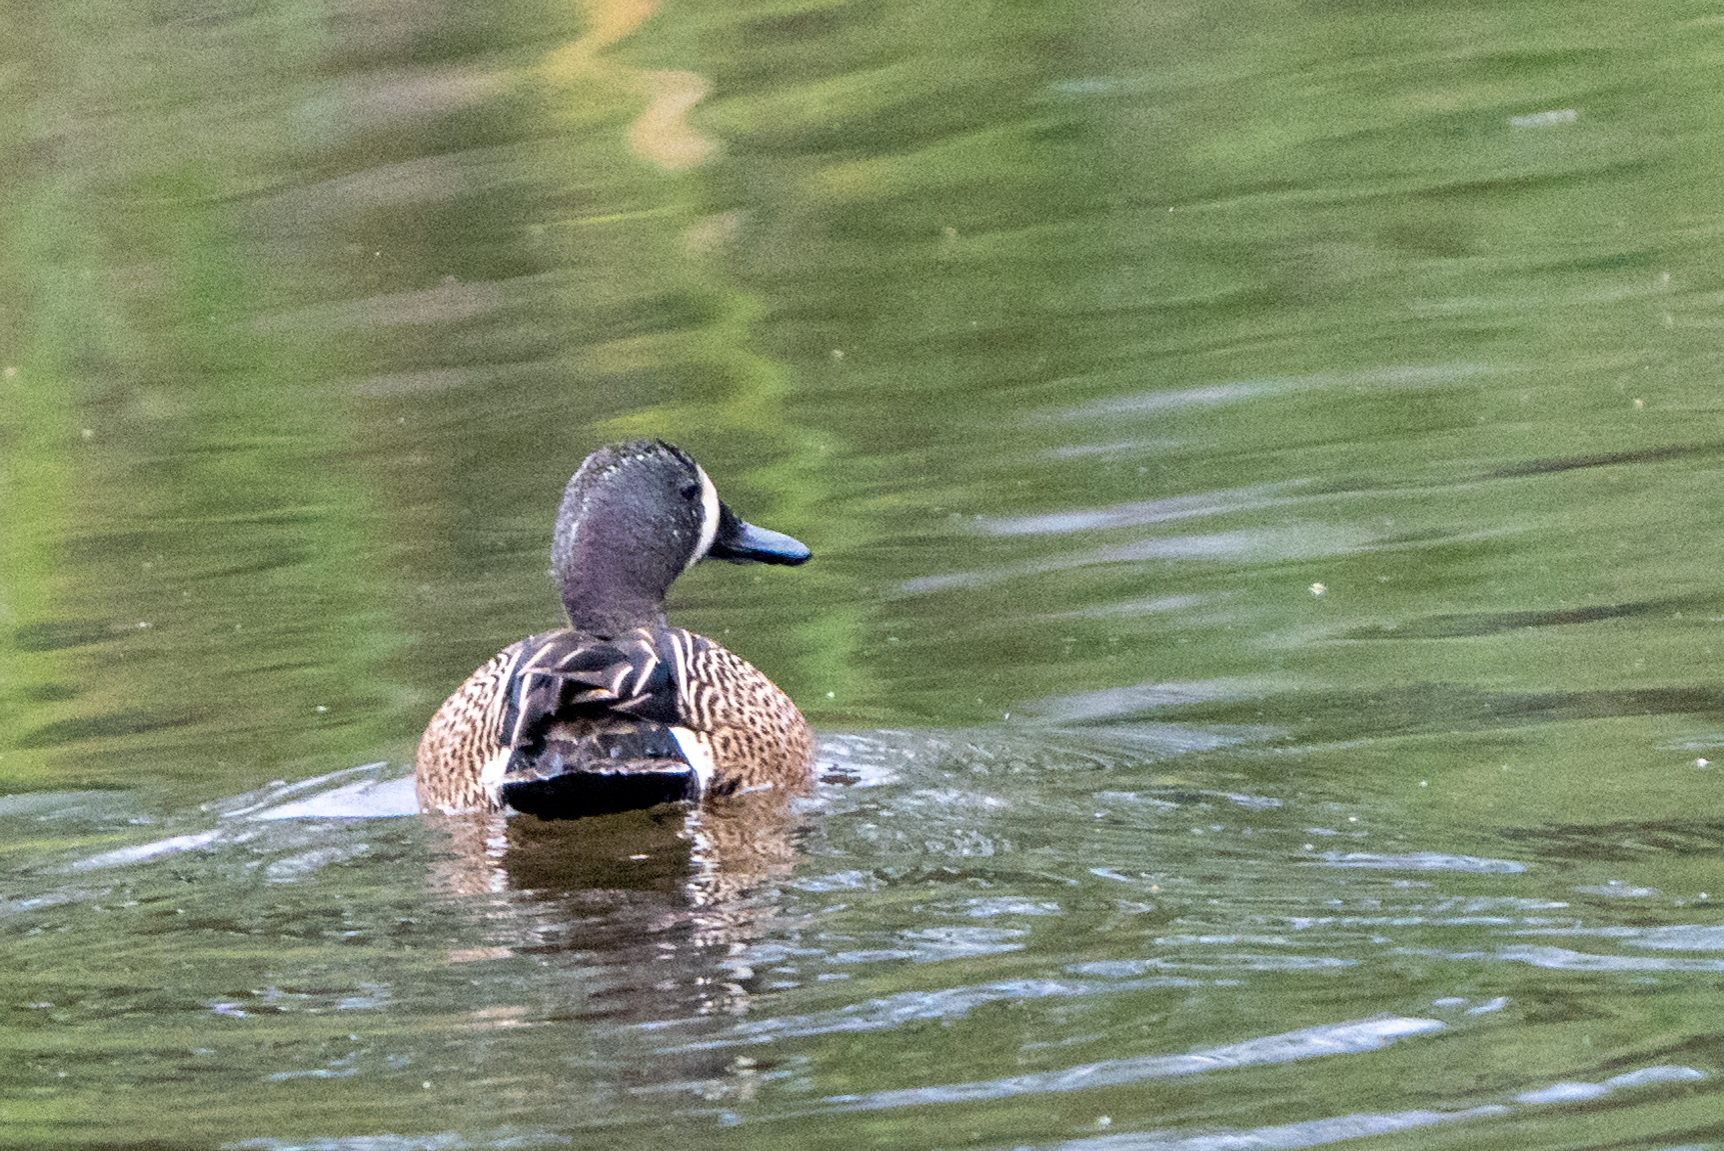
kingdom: Animalia
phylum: Chordata
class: Aves
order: Anseriformes
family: Anatidae
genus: Spatula
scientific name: Spatula discors
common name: Blue-winged teal
